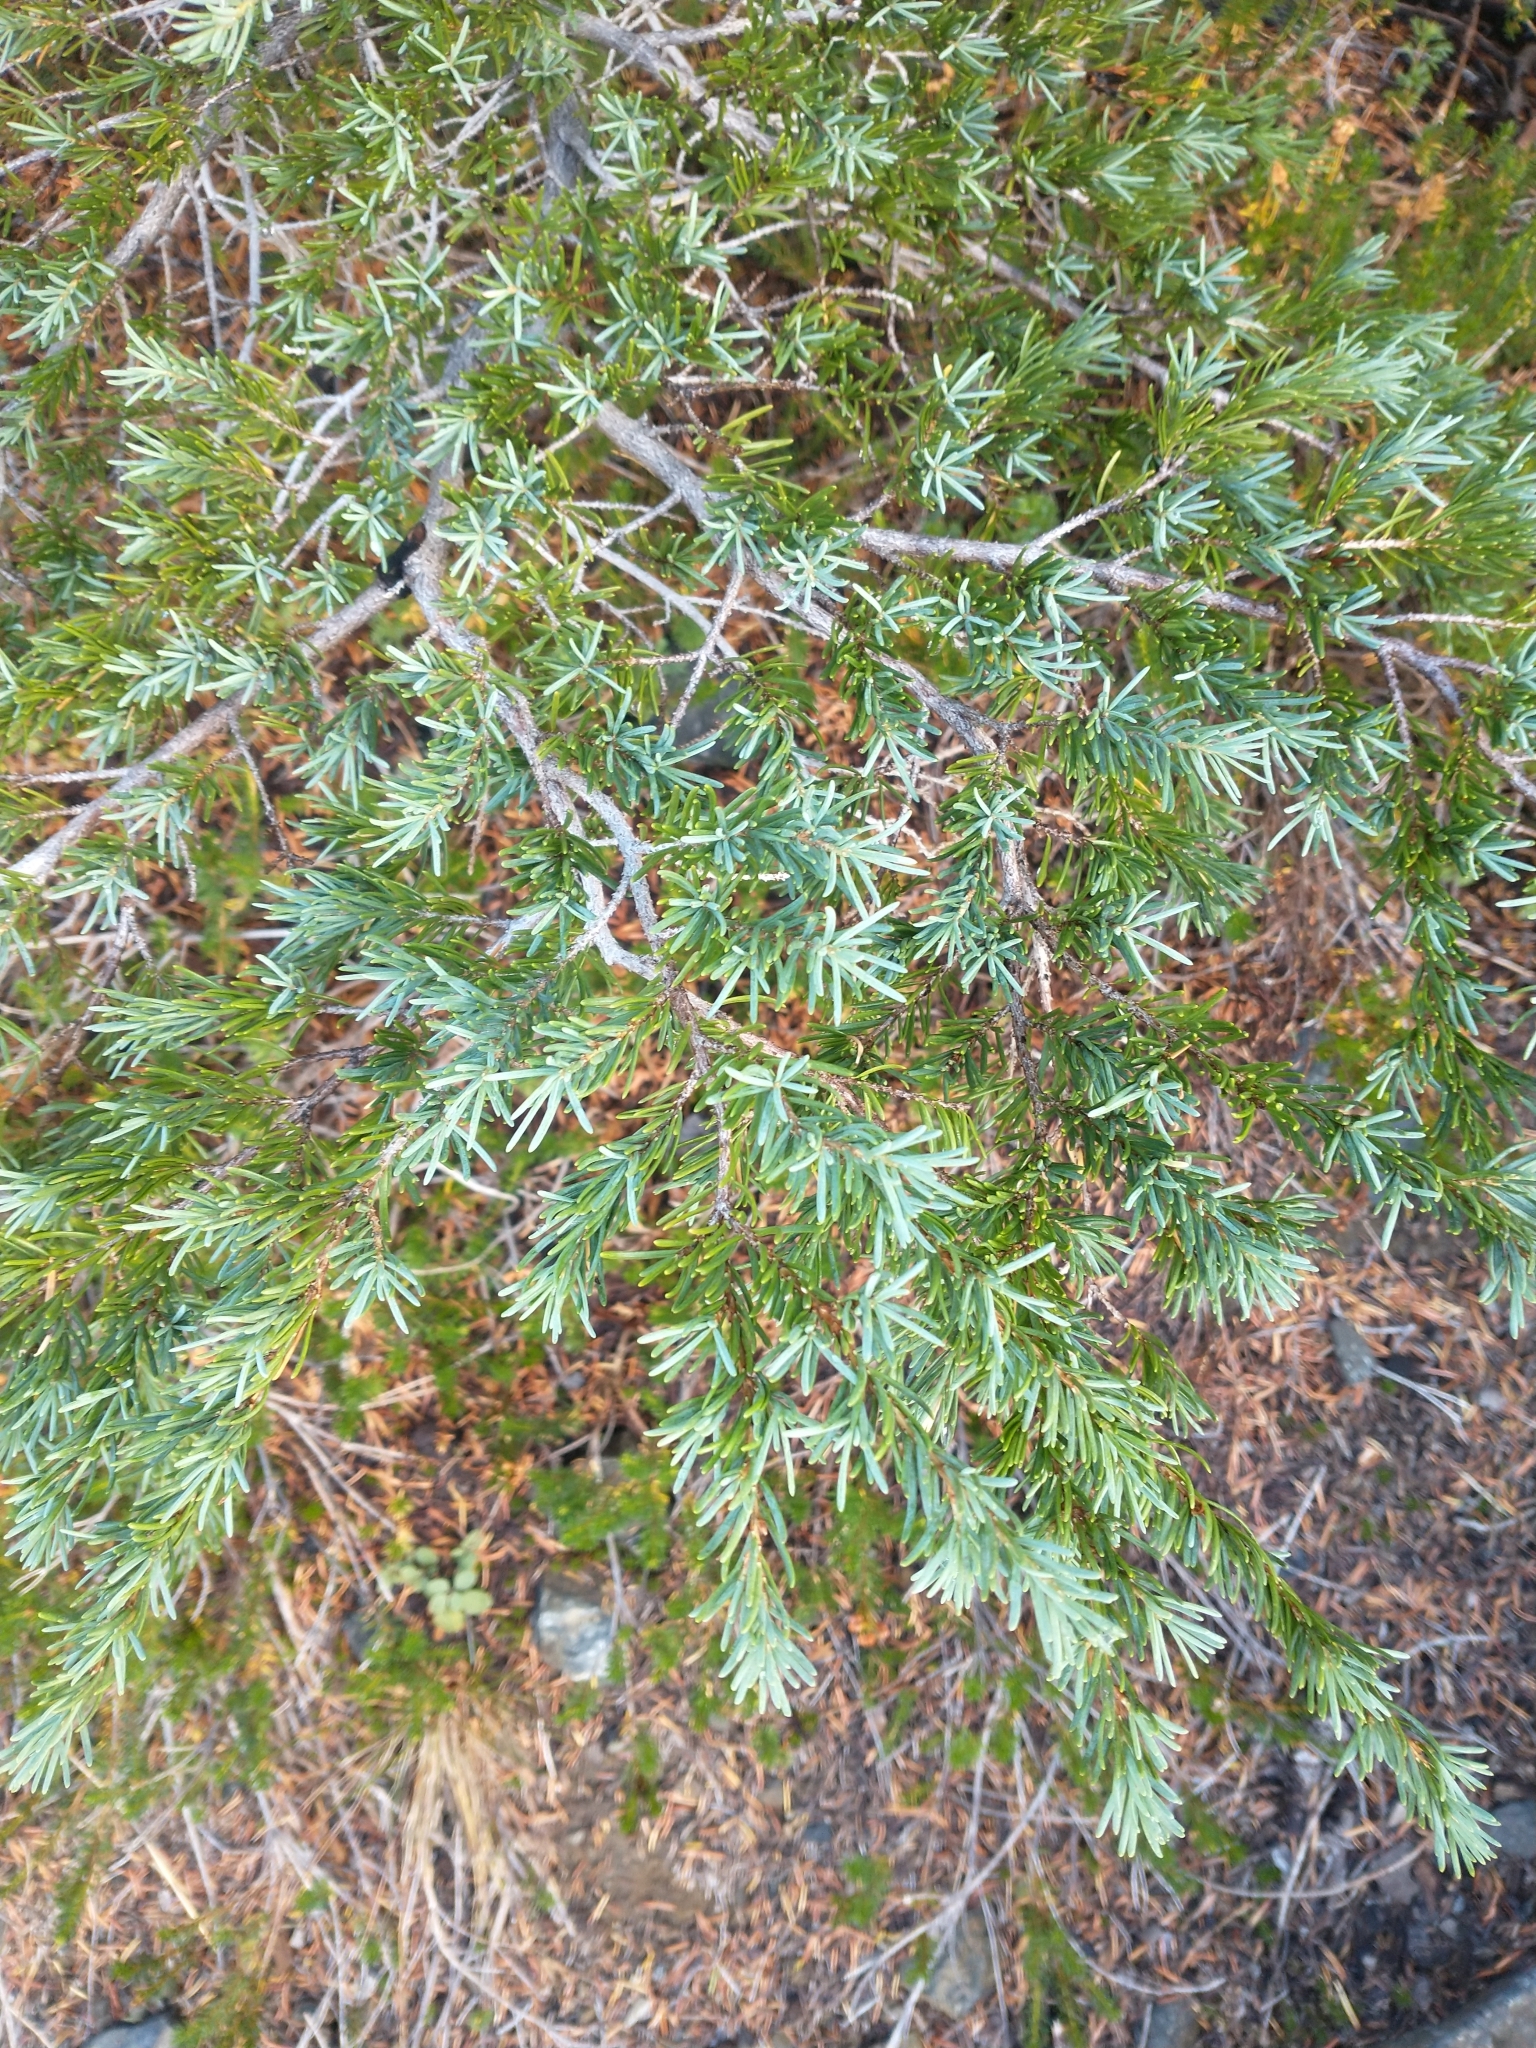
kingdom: Plantae
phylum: Tracheophyta
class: Pinopsida
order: Pinales
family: Pinaceae
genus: Tsuga
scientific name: Tsuga mertensiana
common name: Mountain hemlock
